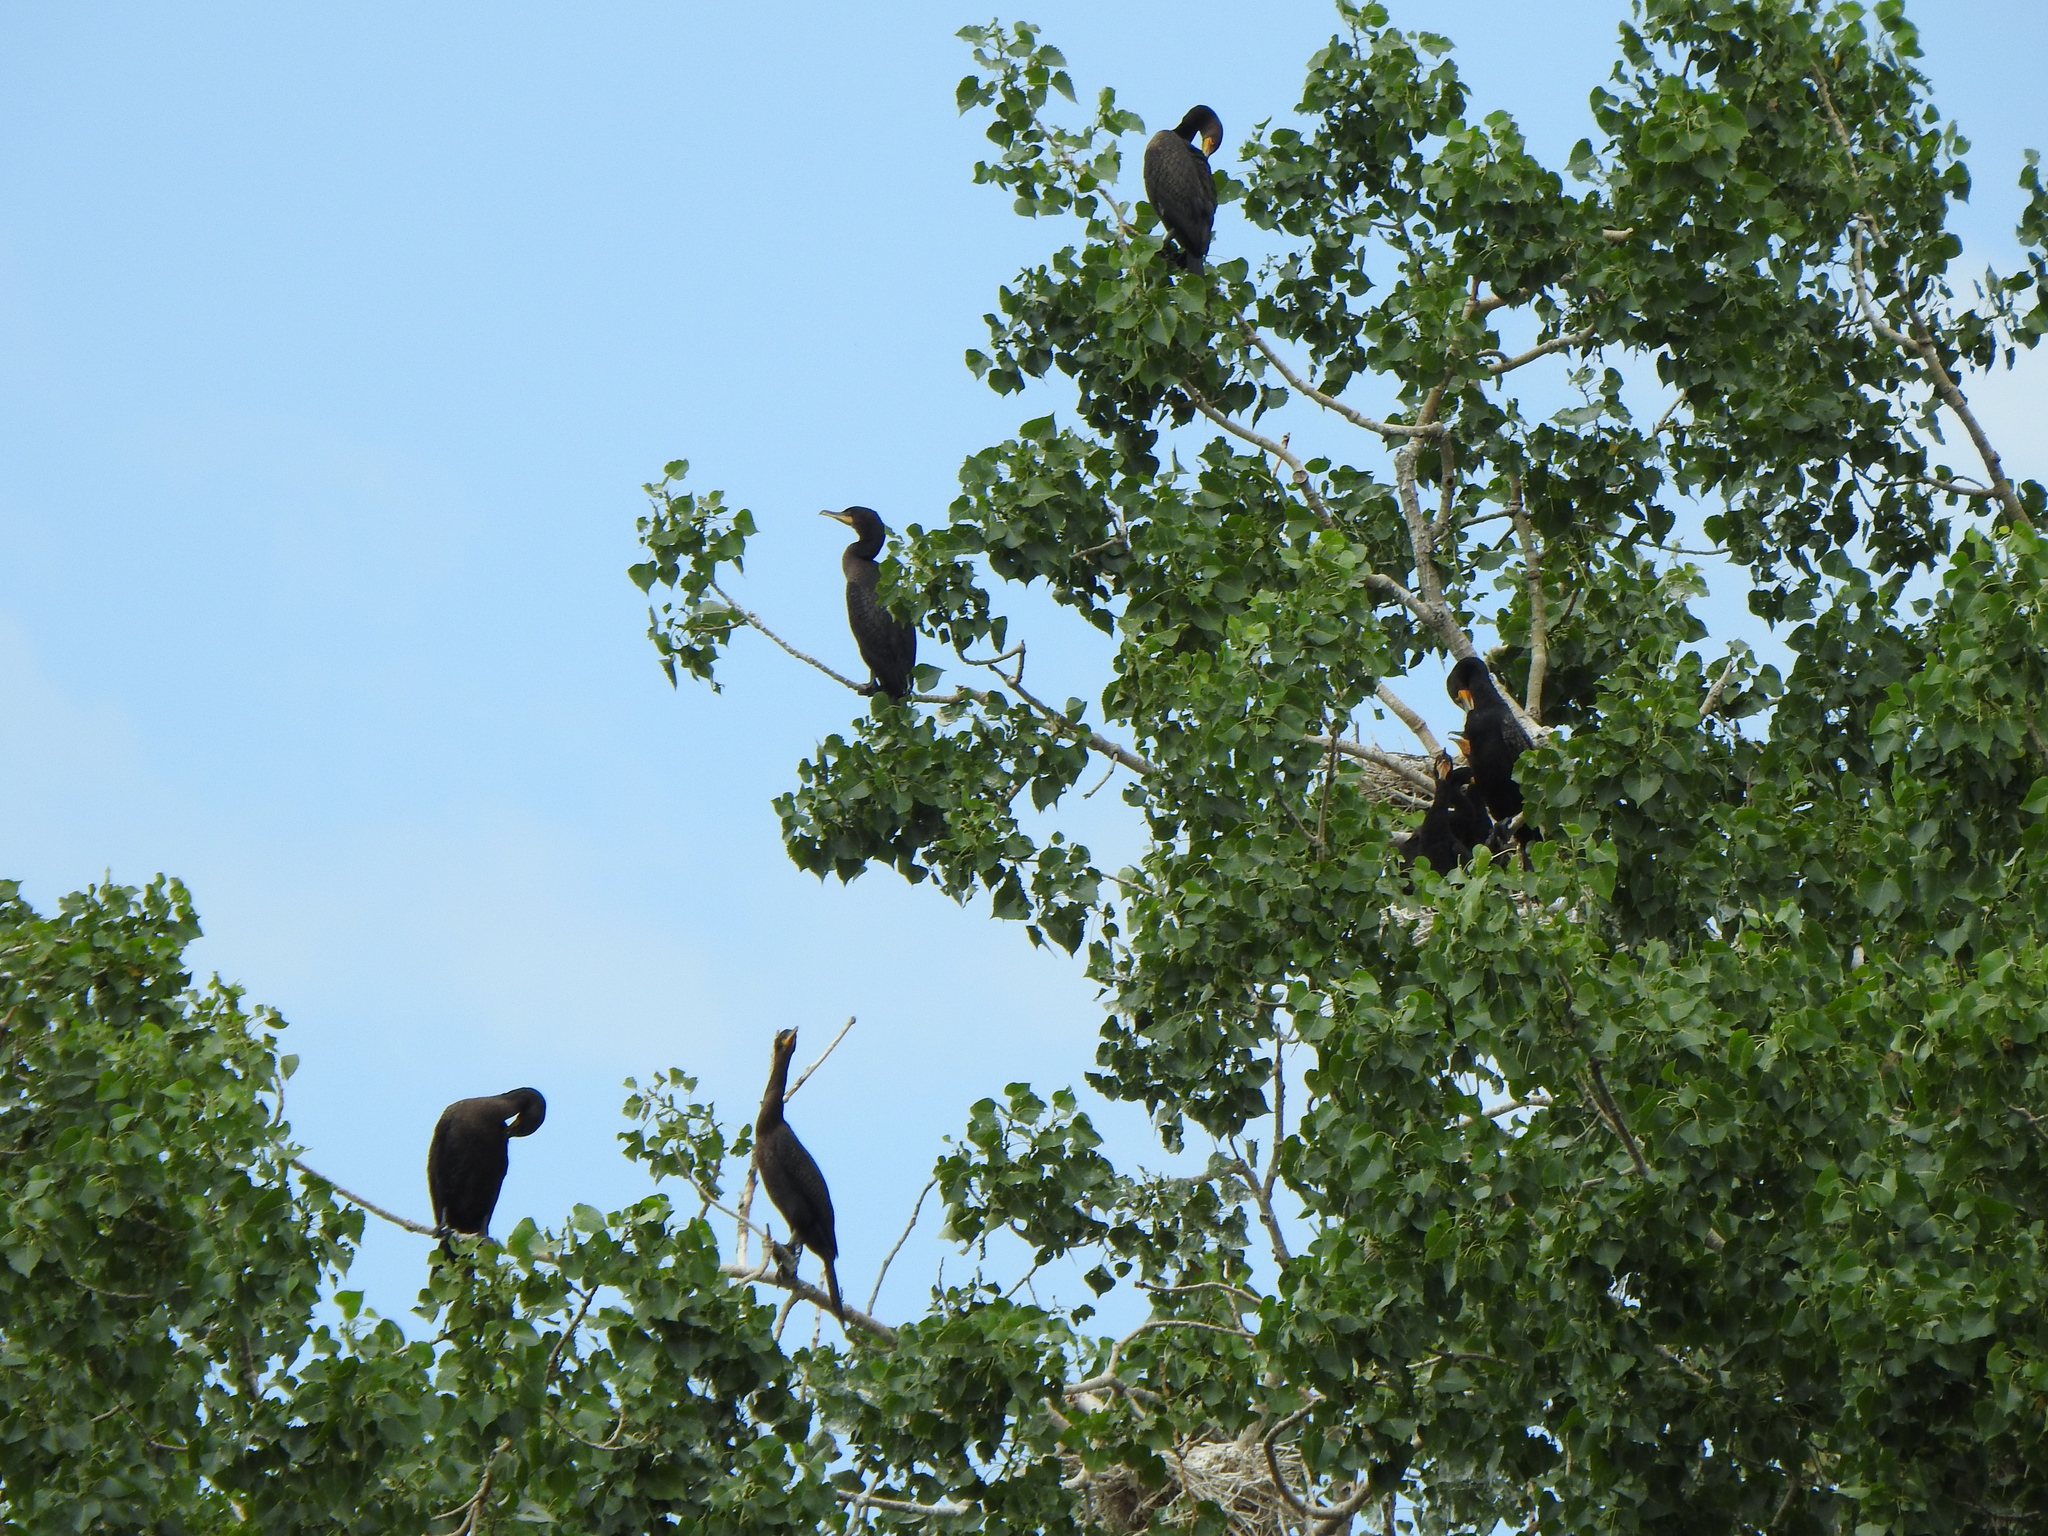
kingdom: Animalia
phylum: Chordata
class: Aves
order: Suliformes
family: Phalacrocoracidae
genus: Phalacrocorax
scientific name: Phalacrocorax auritus
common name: Double-crested cormorant
